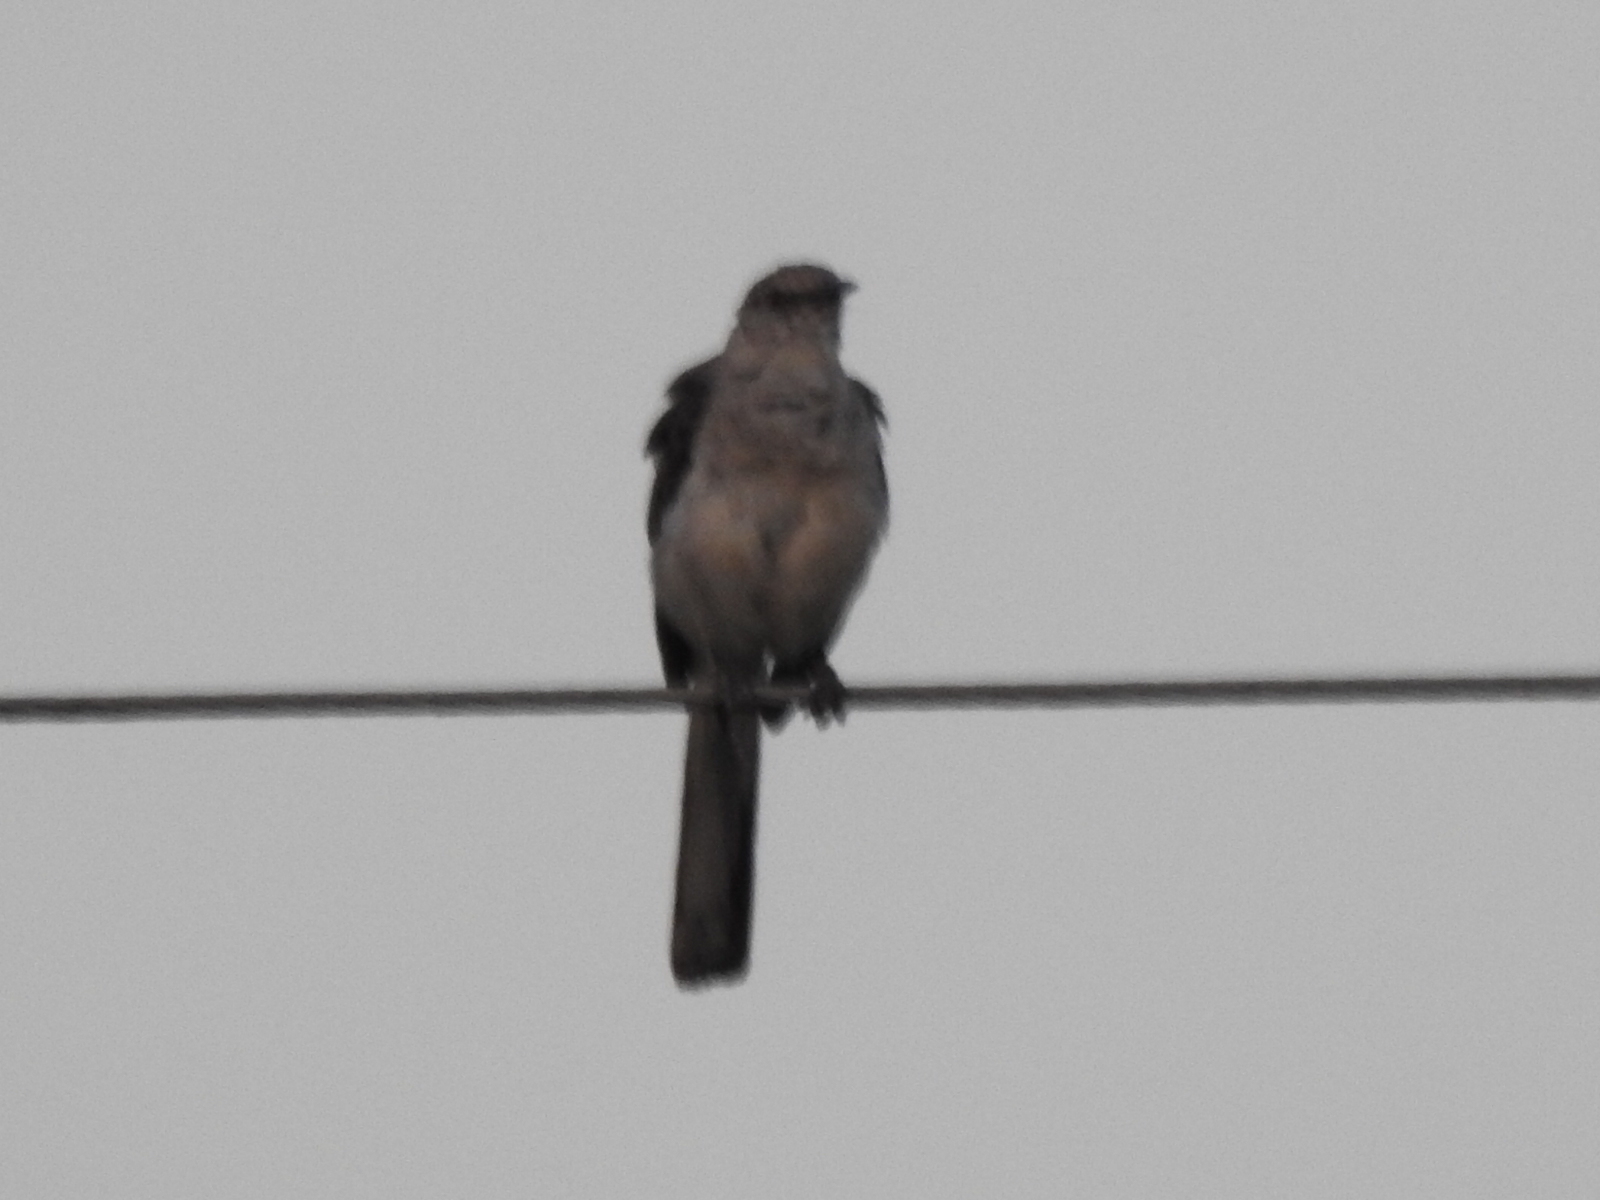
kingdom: Animalia
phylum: Chordata
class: Aves
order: Passeriformes
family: Mimidae
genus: Mimus
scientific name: Mimus polyglottos
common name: Northern mockingbird
